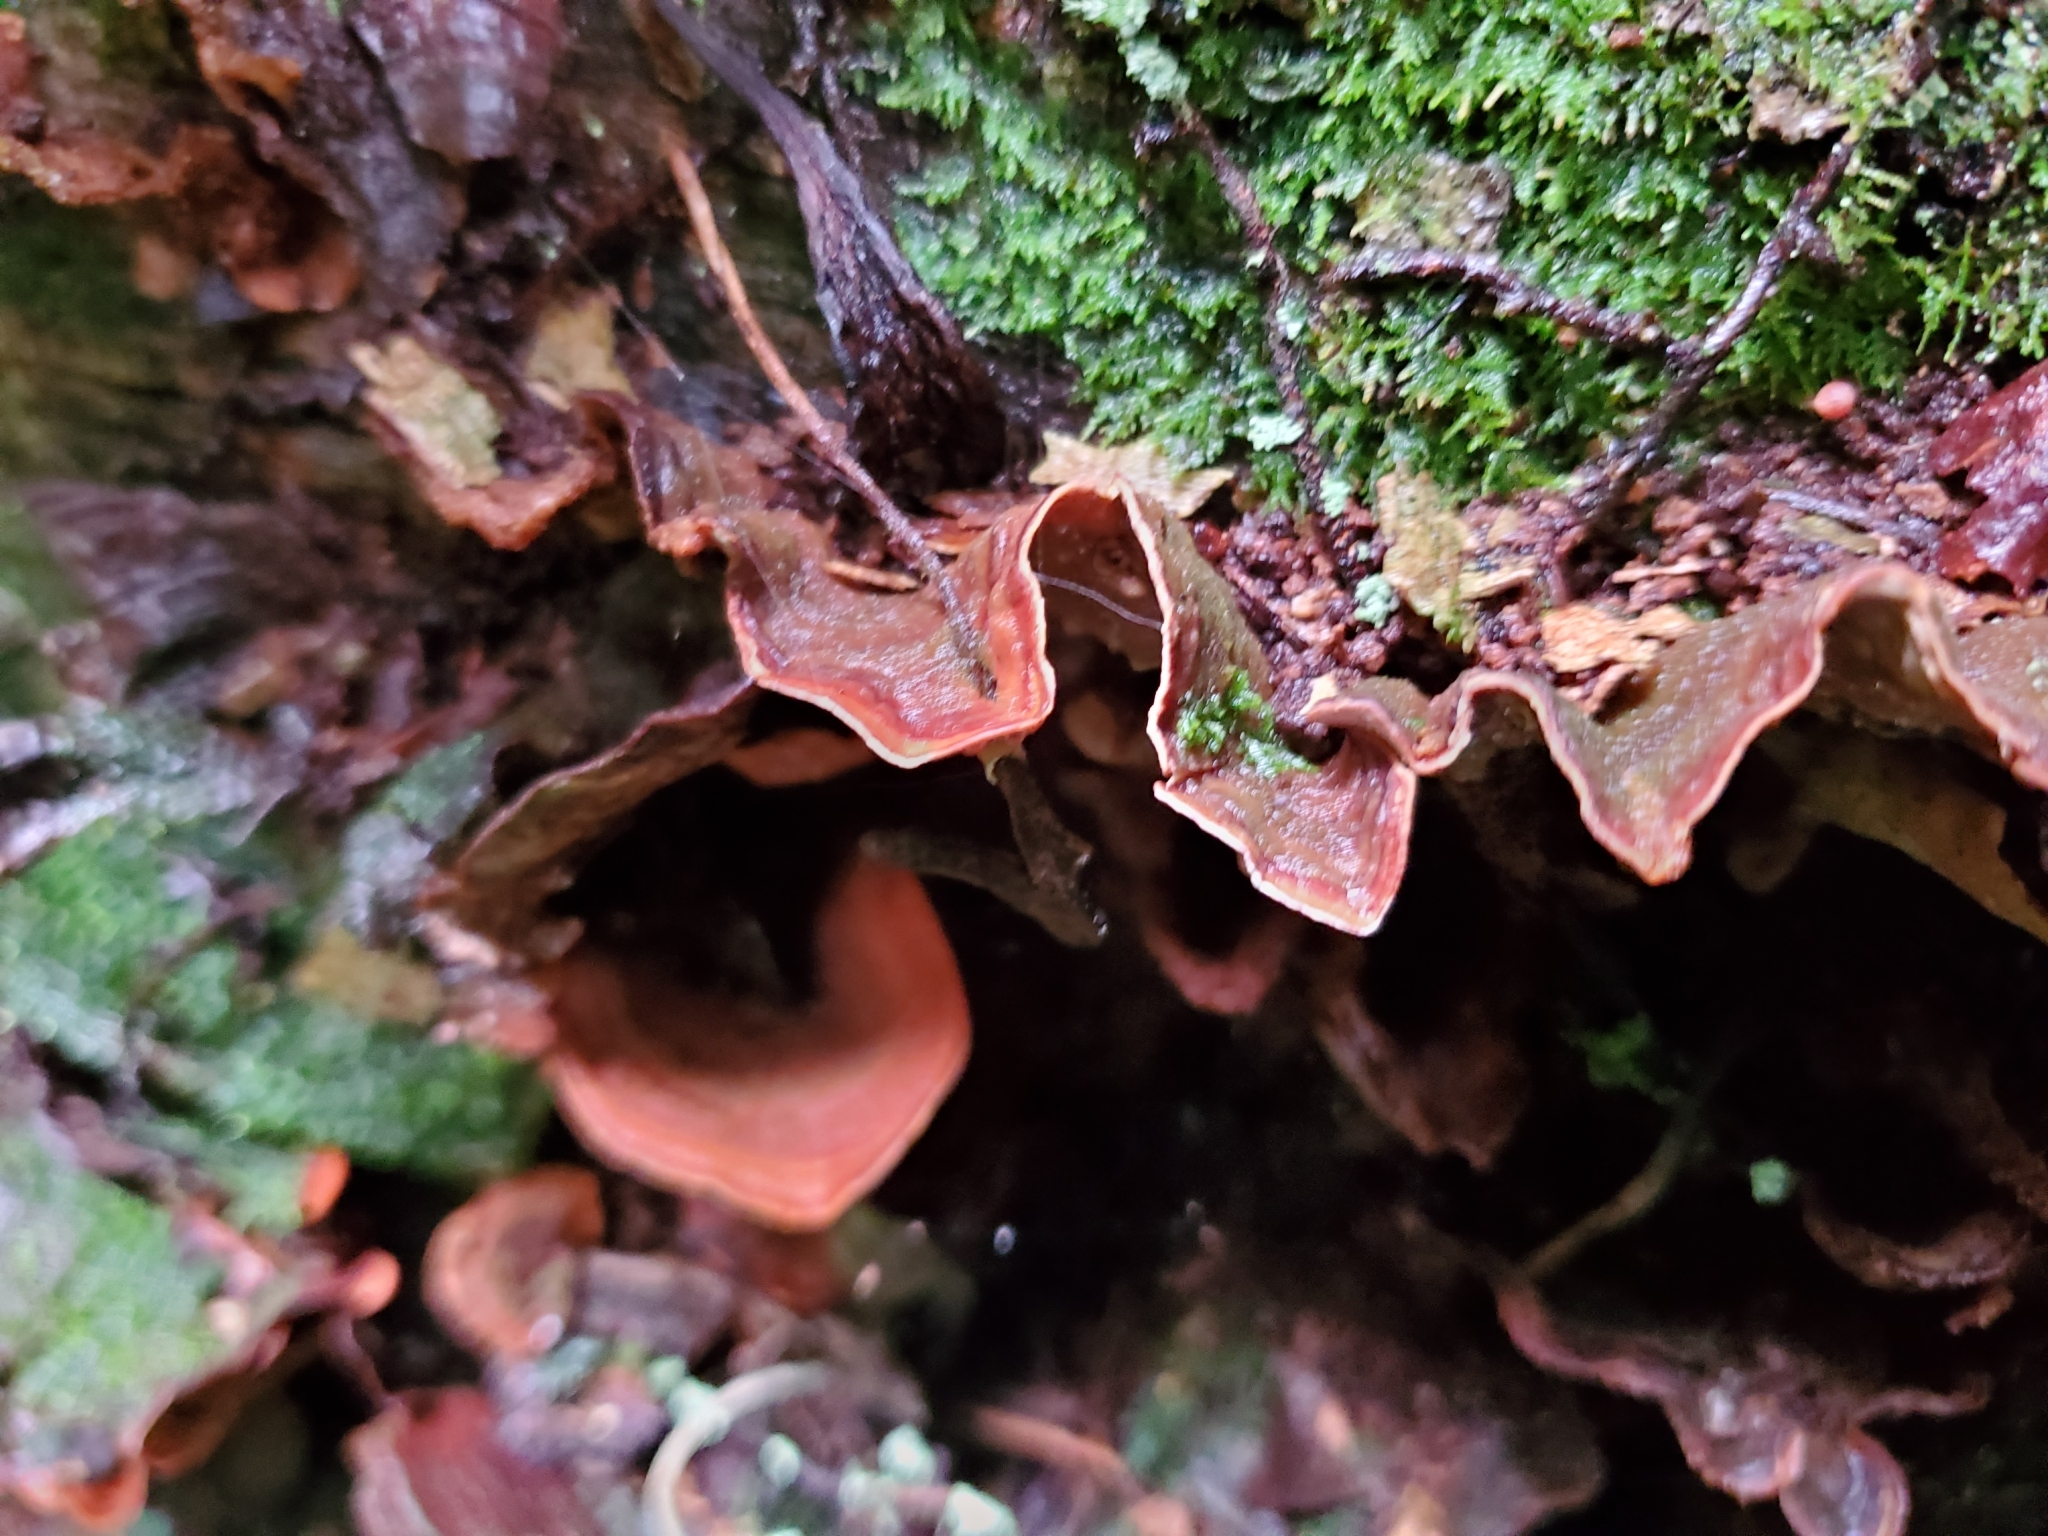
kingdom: Fungi
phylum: Basidiomycota
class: Agaricomycetes
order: Russulales
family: Stereaceae
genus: Stereum
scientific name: Stereum versicolor
